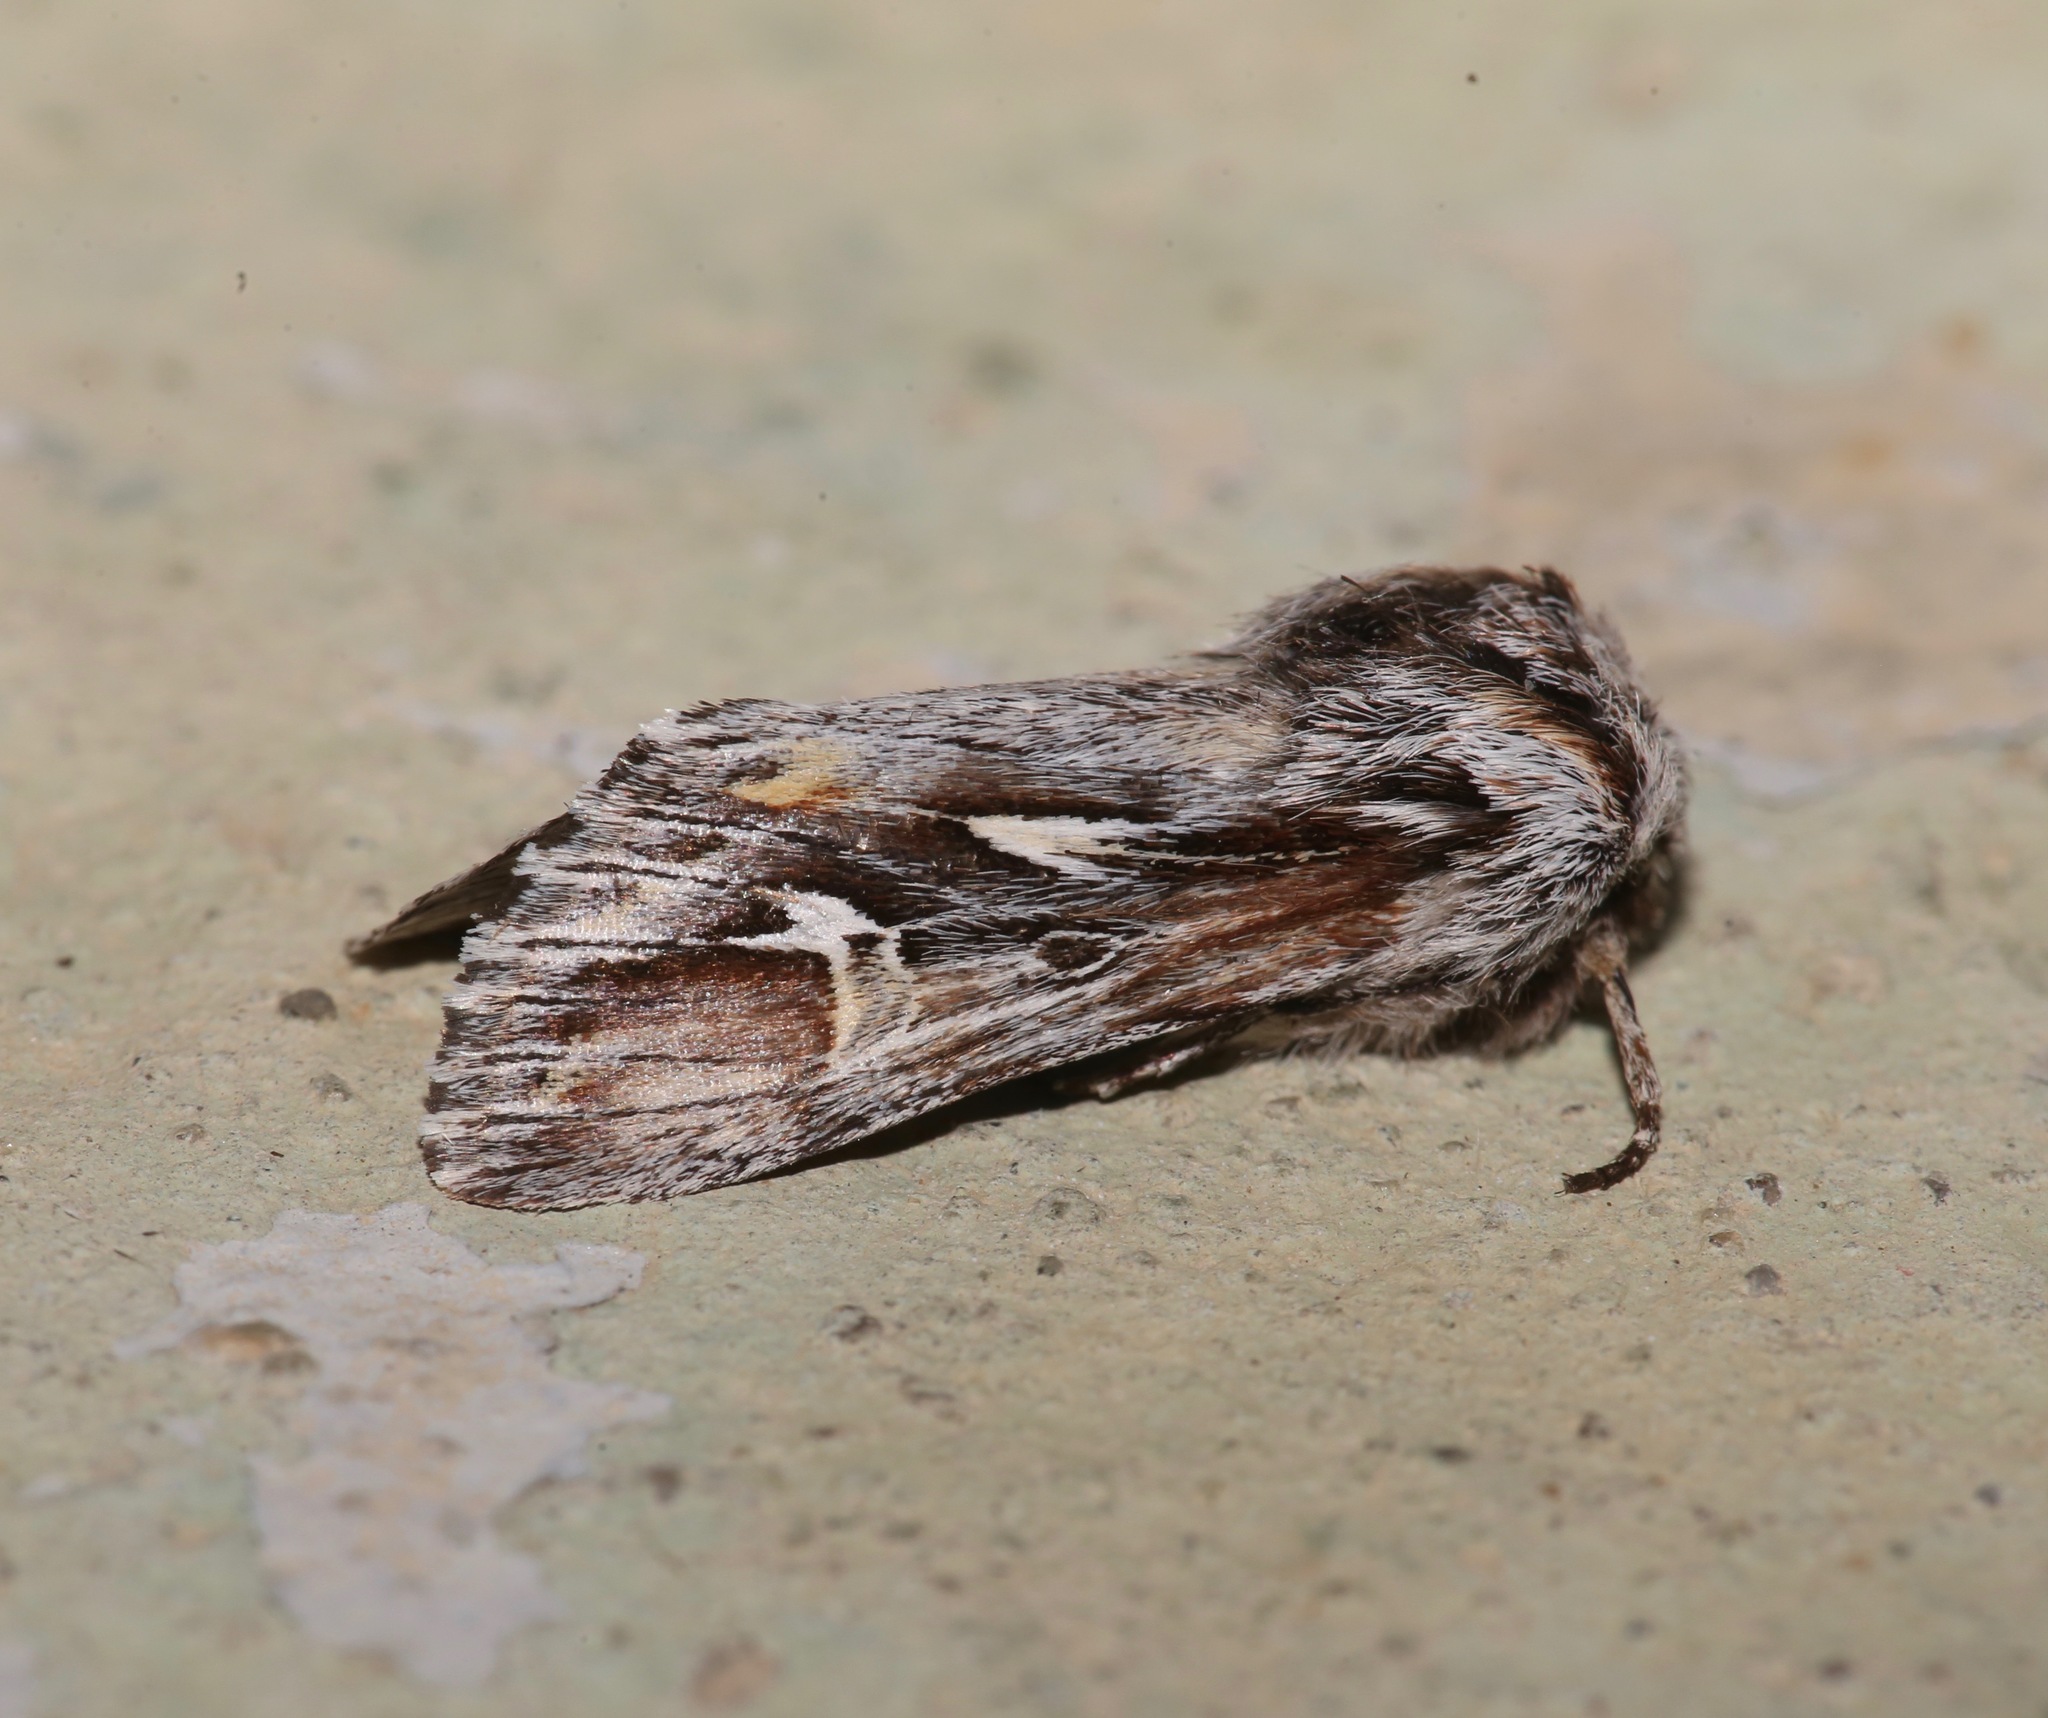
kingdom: Animalia
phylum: Arthropoda
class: Insecta
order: Lepidoptera
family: Noctuidae
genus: Provia
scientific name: Provia argentata
